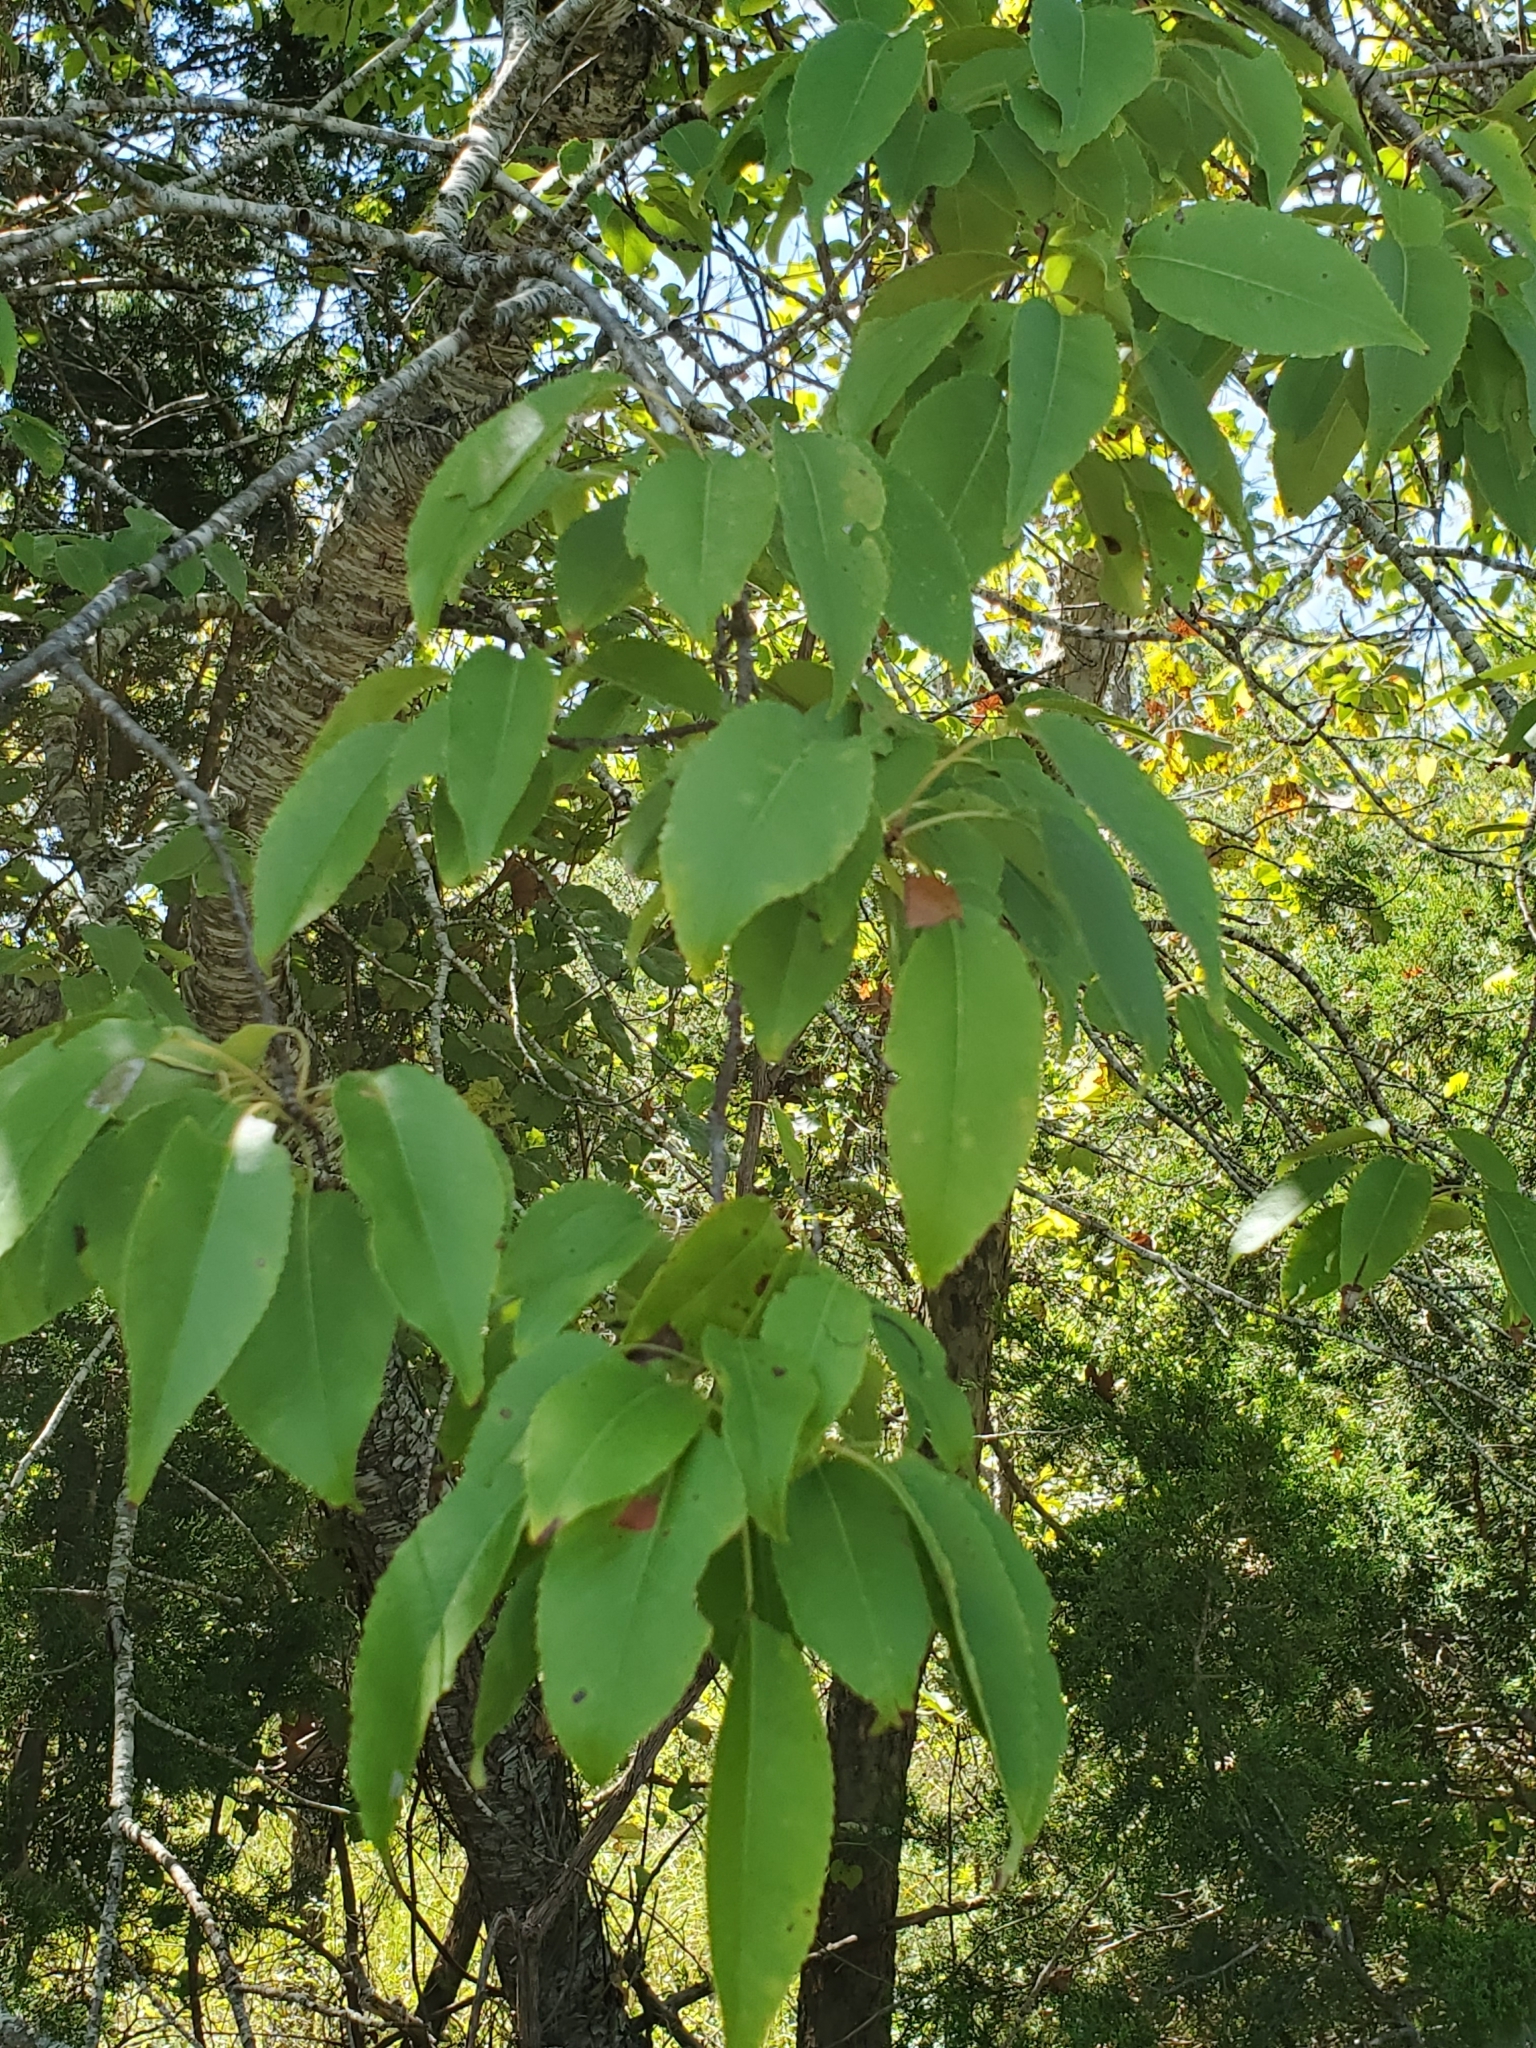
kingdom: Plantae
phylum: Tracheophyta
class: Magnoliopsida
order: Rosales
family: Rosaceae
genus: Prunus
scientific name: Prunus serotina
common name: Black cherry
